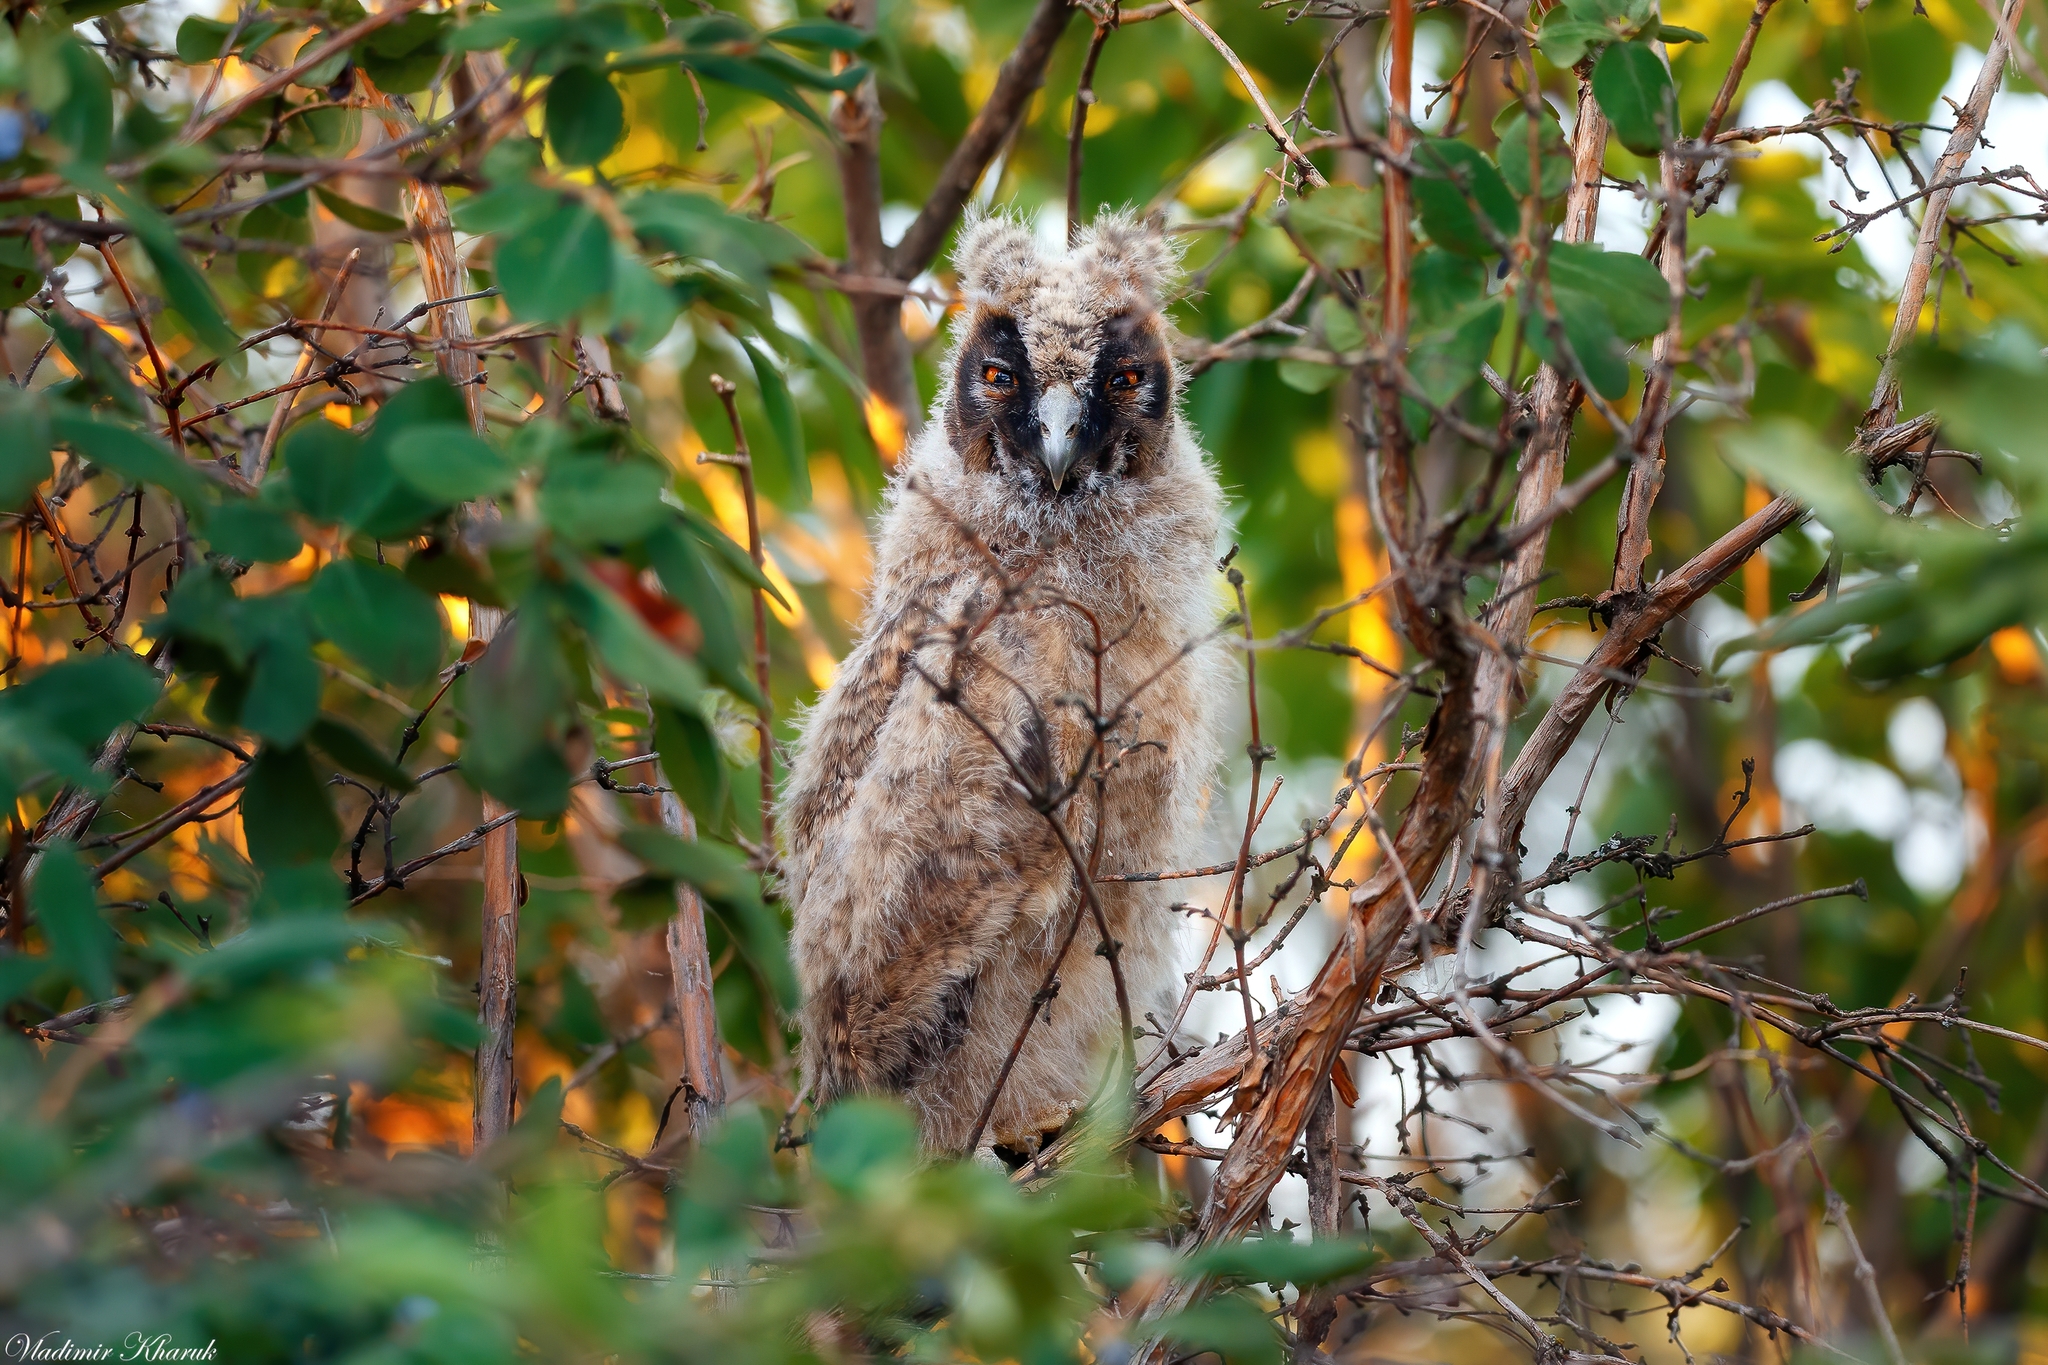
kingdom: Animalia
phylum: Chordata
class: Aves
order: Strigiformes
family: Strigidae
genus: Asio
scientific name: Asio otus
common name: Long-eared owl
